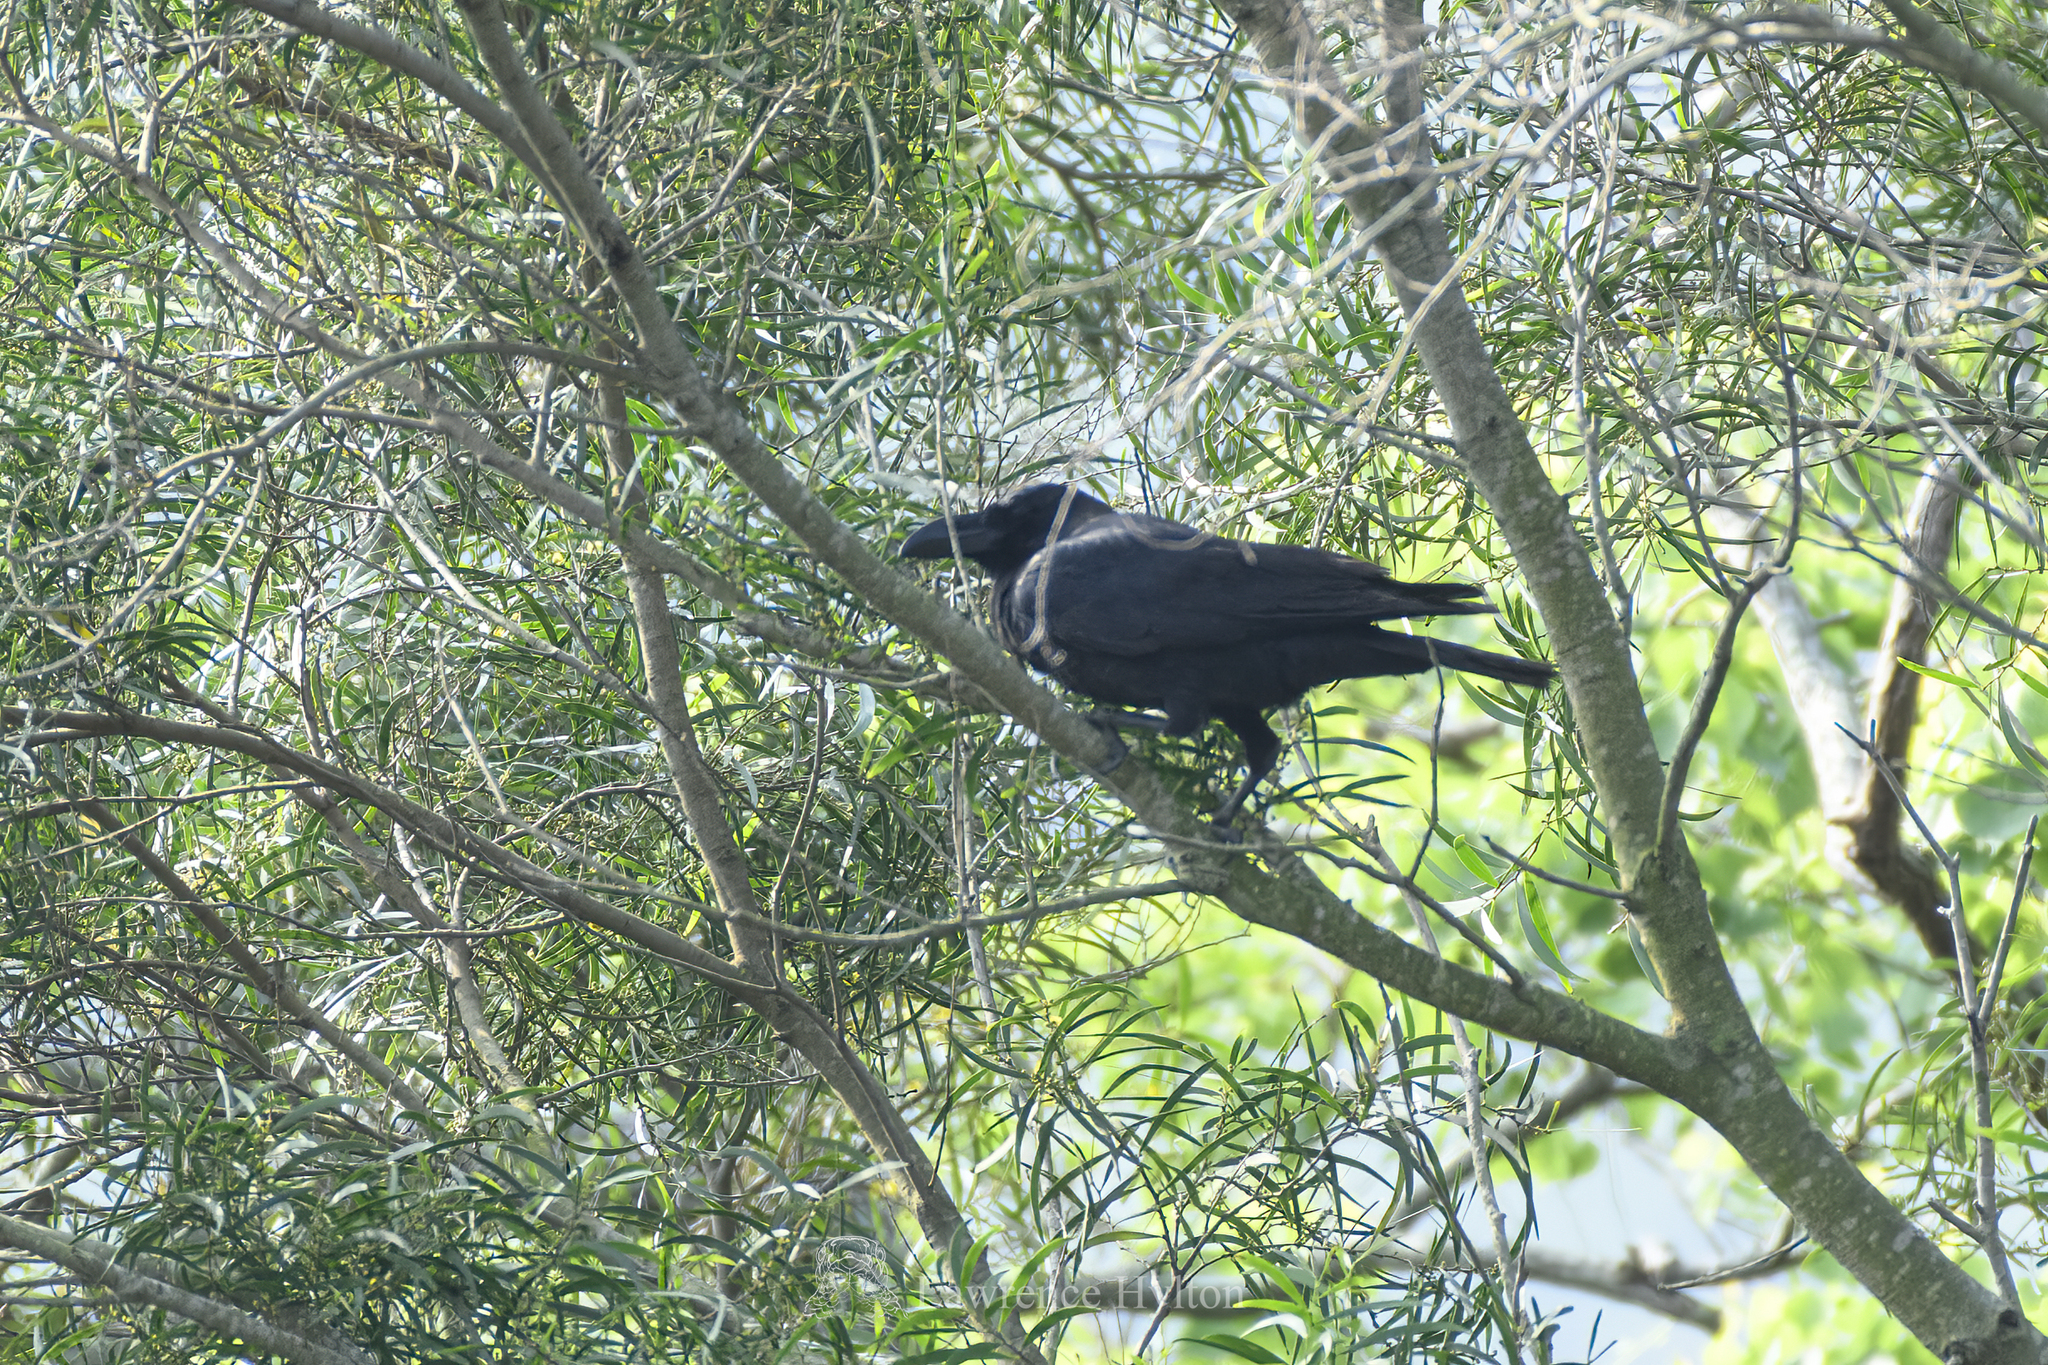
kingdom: Animalia
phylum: Chordata
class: Aves
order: Passeriformes
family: Corvidae
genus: Corvus
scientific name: Corvus macrorhynchos
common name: Large-billed crow
